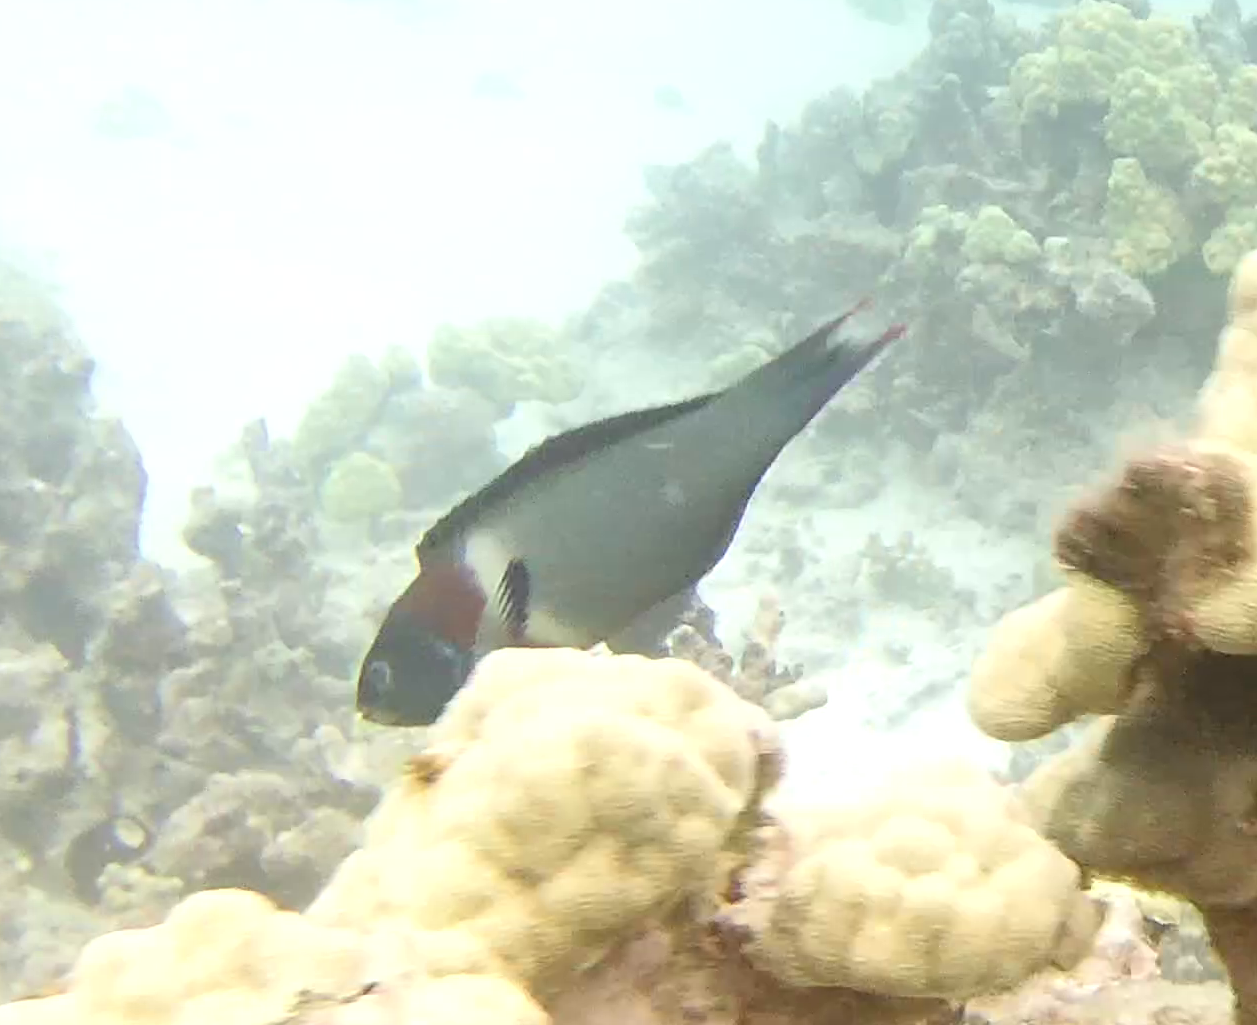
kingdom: Animalia
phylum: Chordata
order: Perciformes
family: Labridae
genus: Thalassoma
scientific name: Thalassoma duperrey
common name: Saddle wrasse
